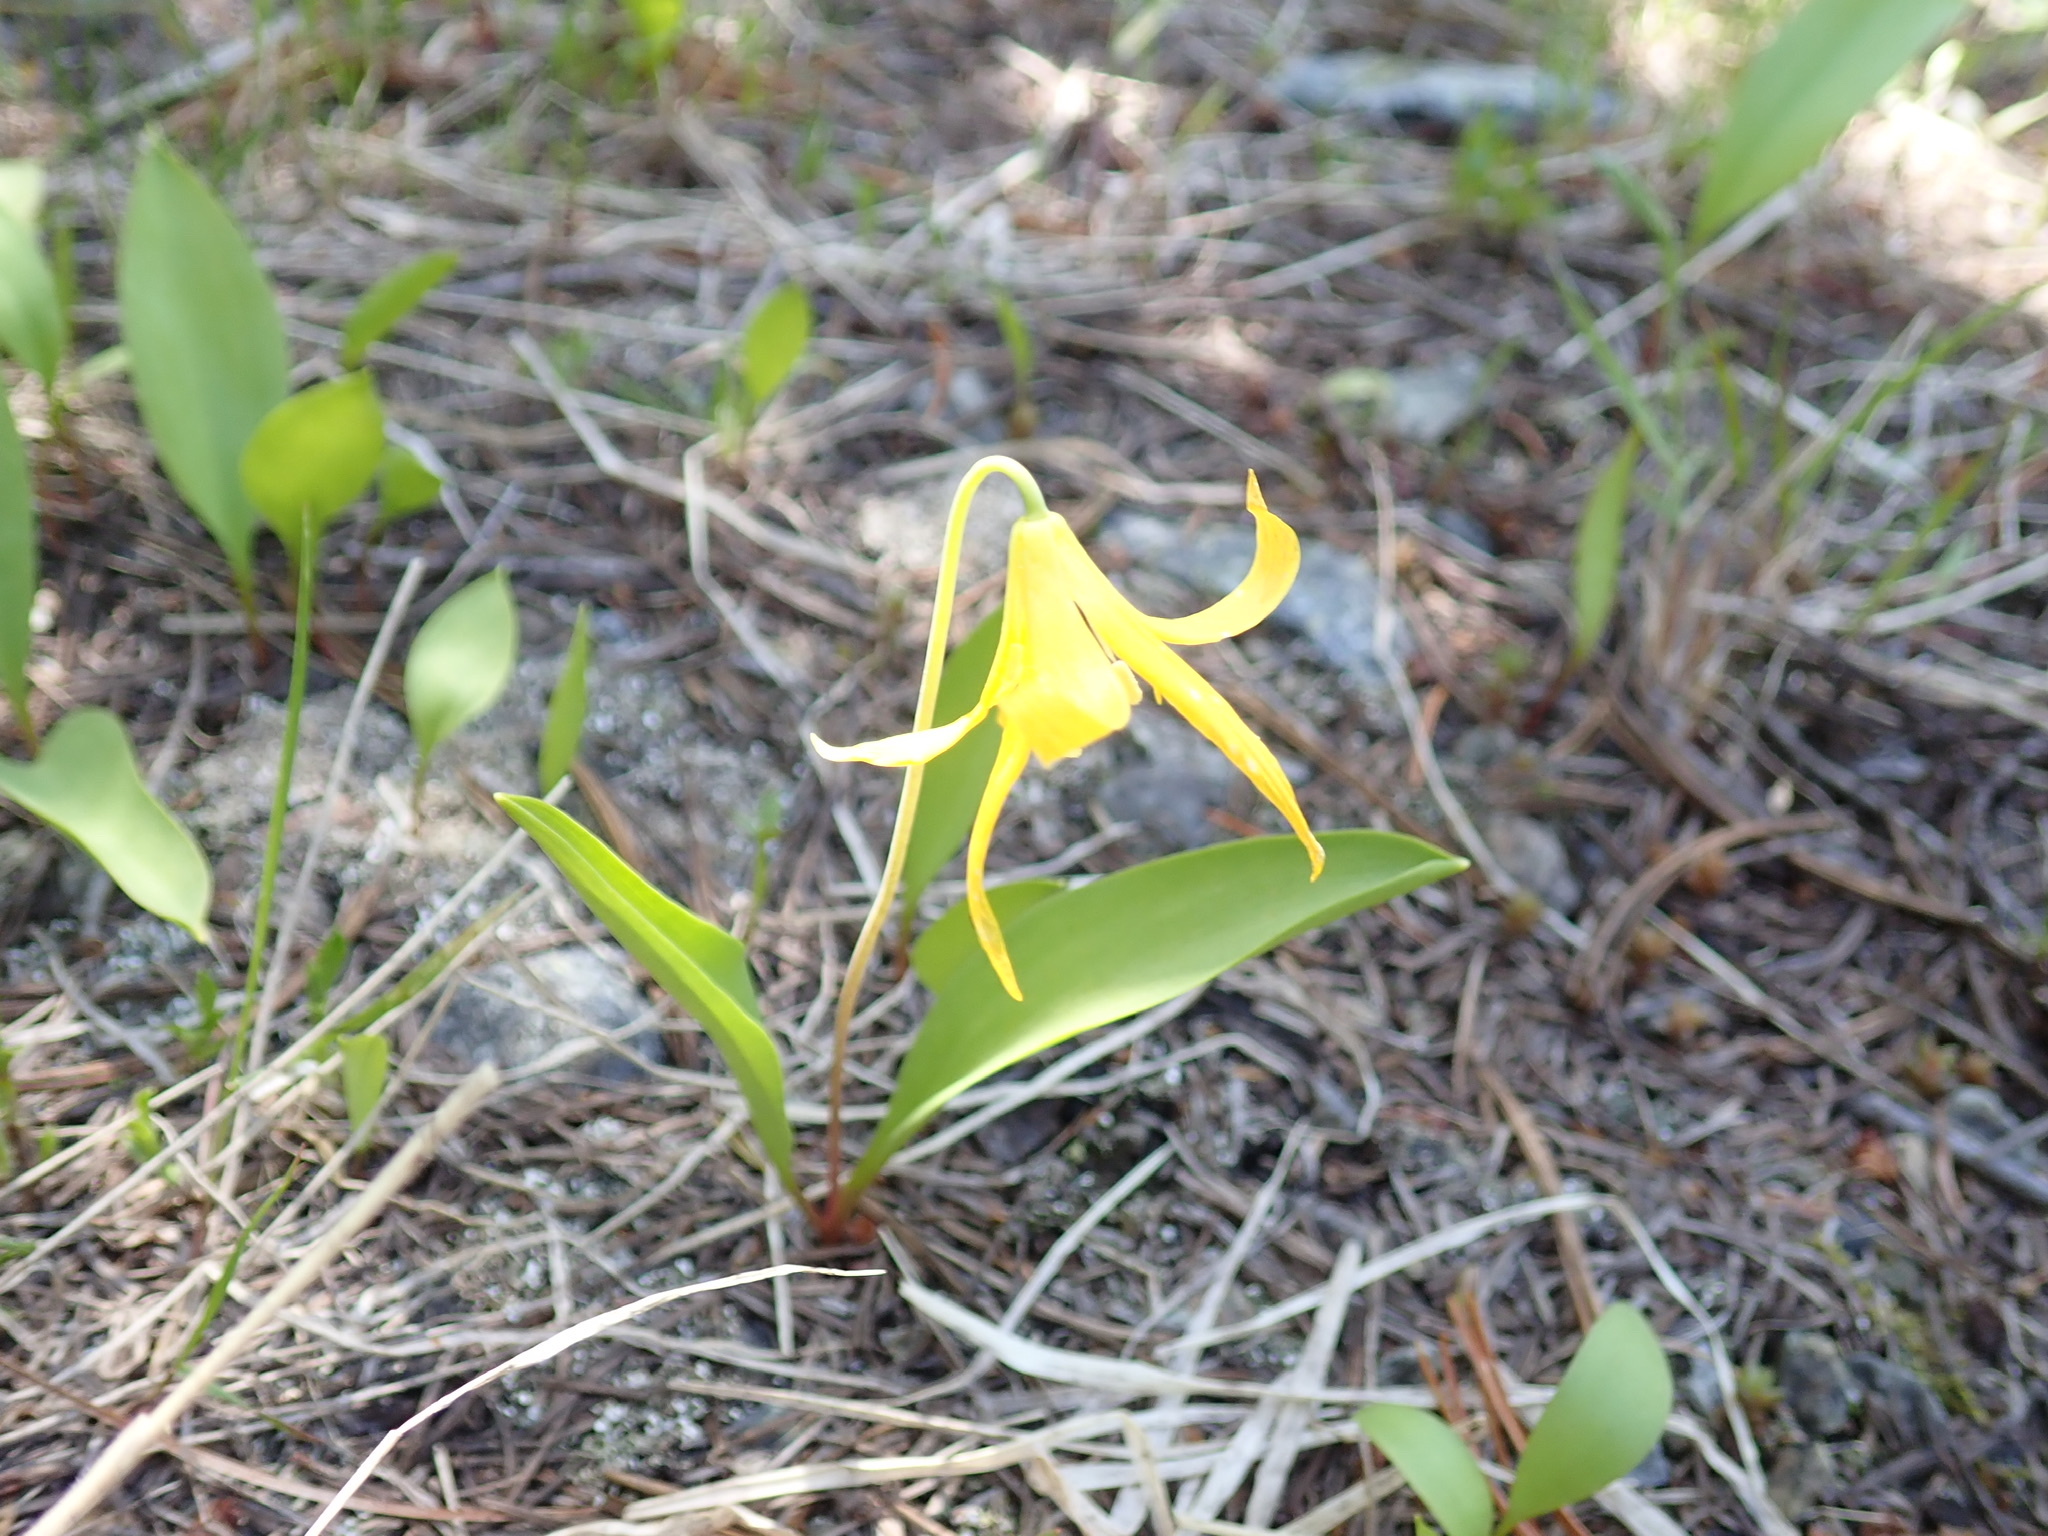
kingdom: Plantae
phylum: Tracheophyta
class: Liliopsida
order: Liliales
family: Liliaceae
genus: Erythronium
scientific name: Erythronium grandiflorum
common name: Avalanche-lily
